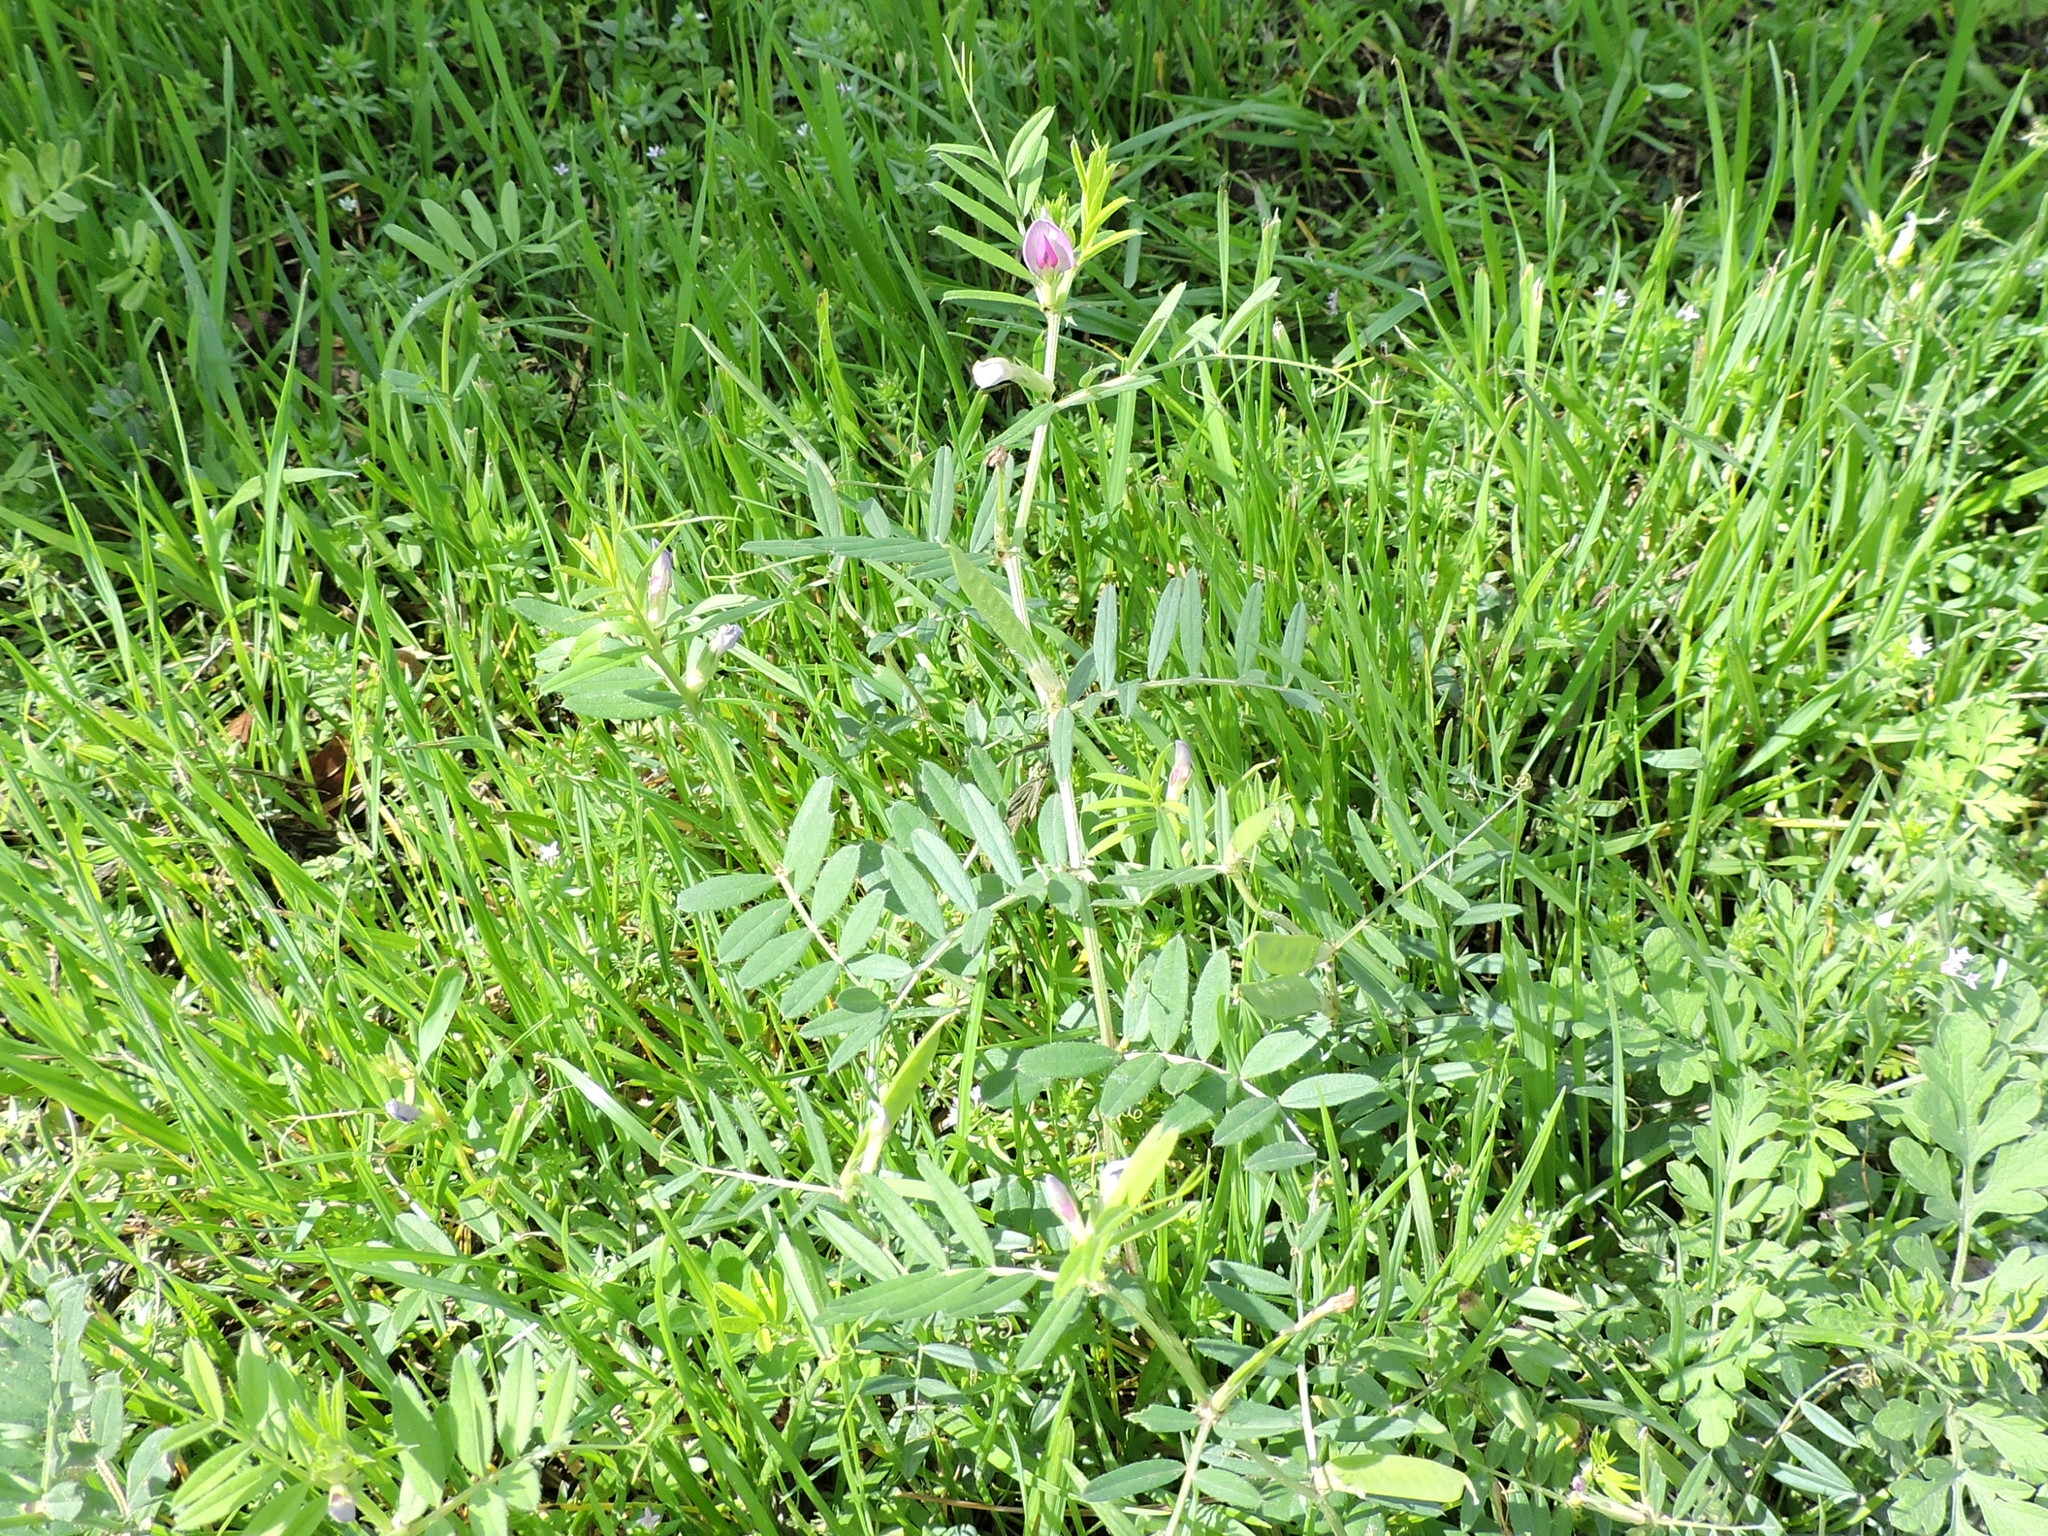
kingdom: Plantae
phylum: Tracheophyta
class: Magnoliopsida
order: Fabales
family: Fabaceae
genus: Vicia
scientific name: Vicia sativa
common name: Garden vetch
